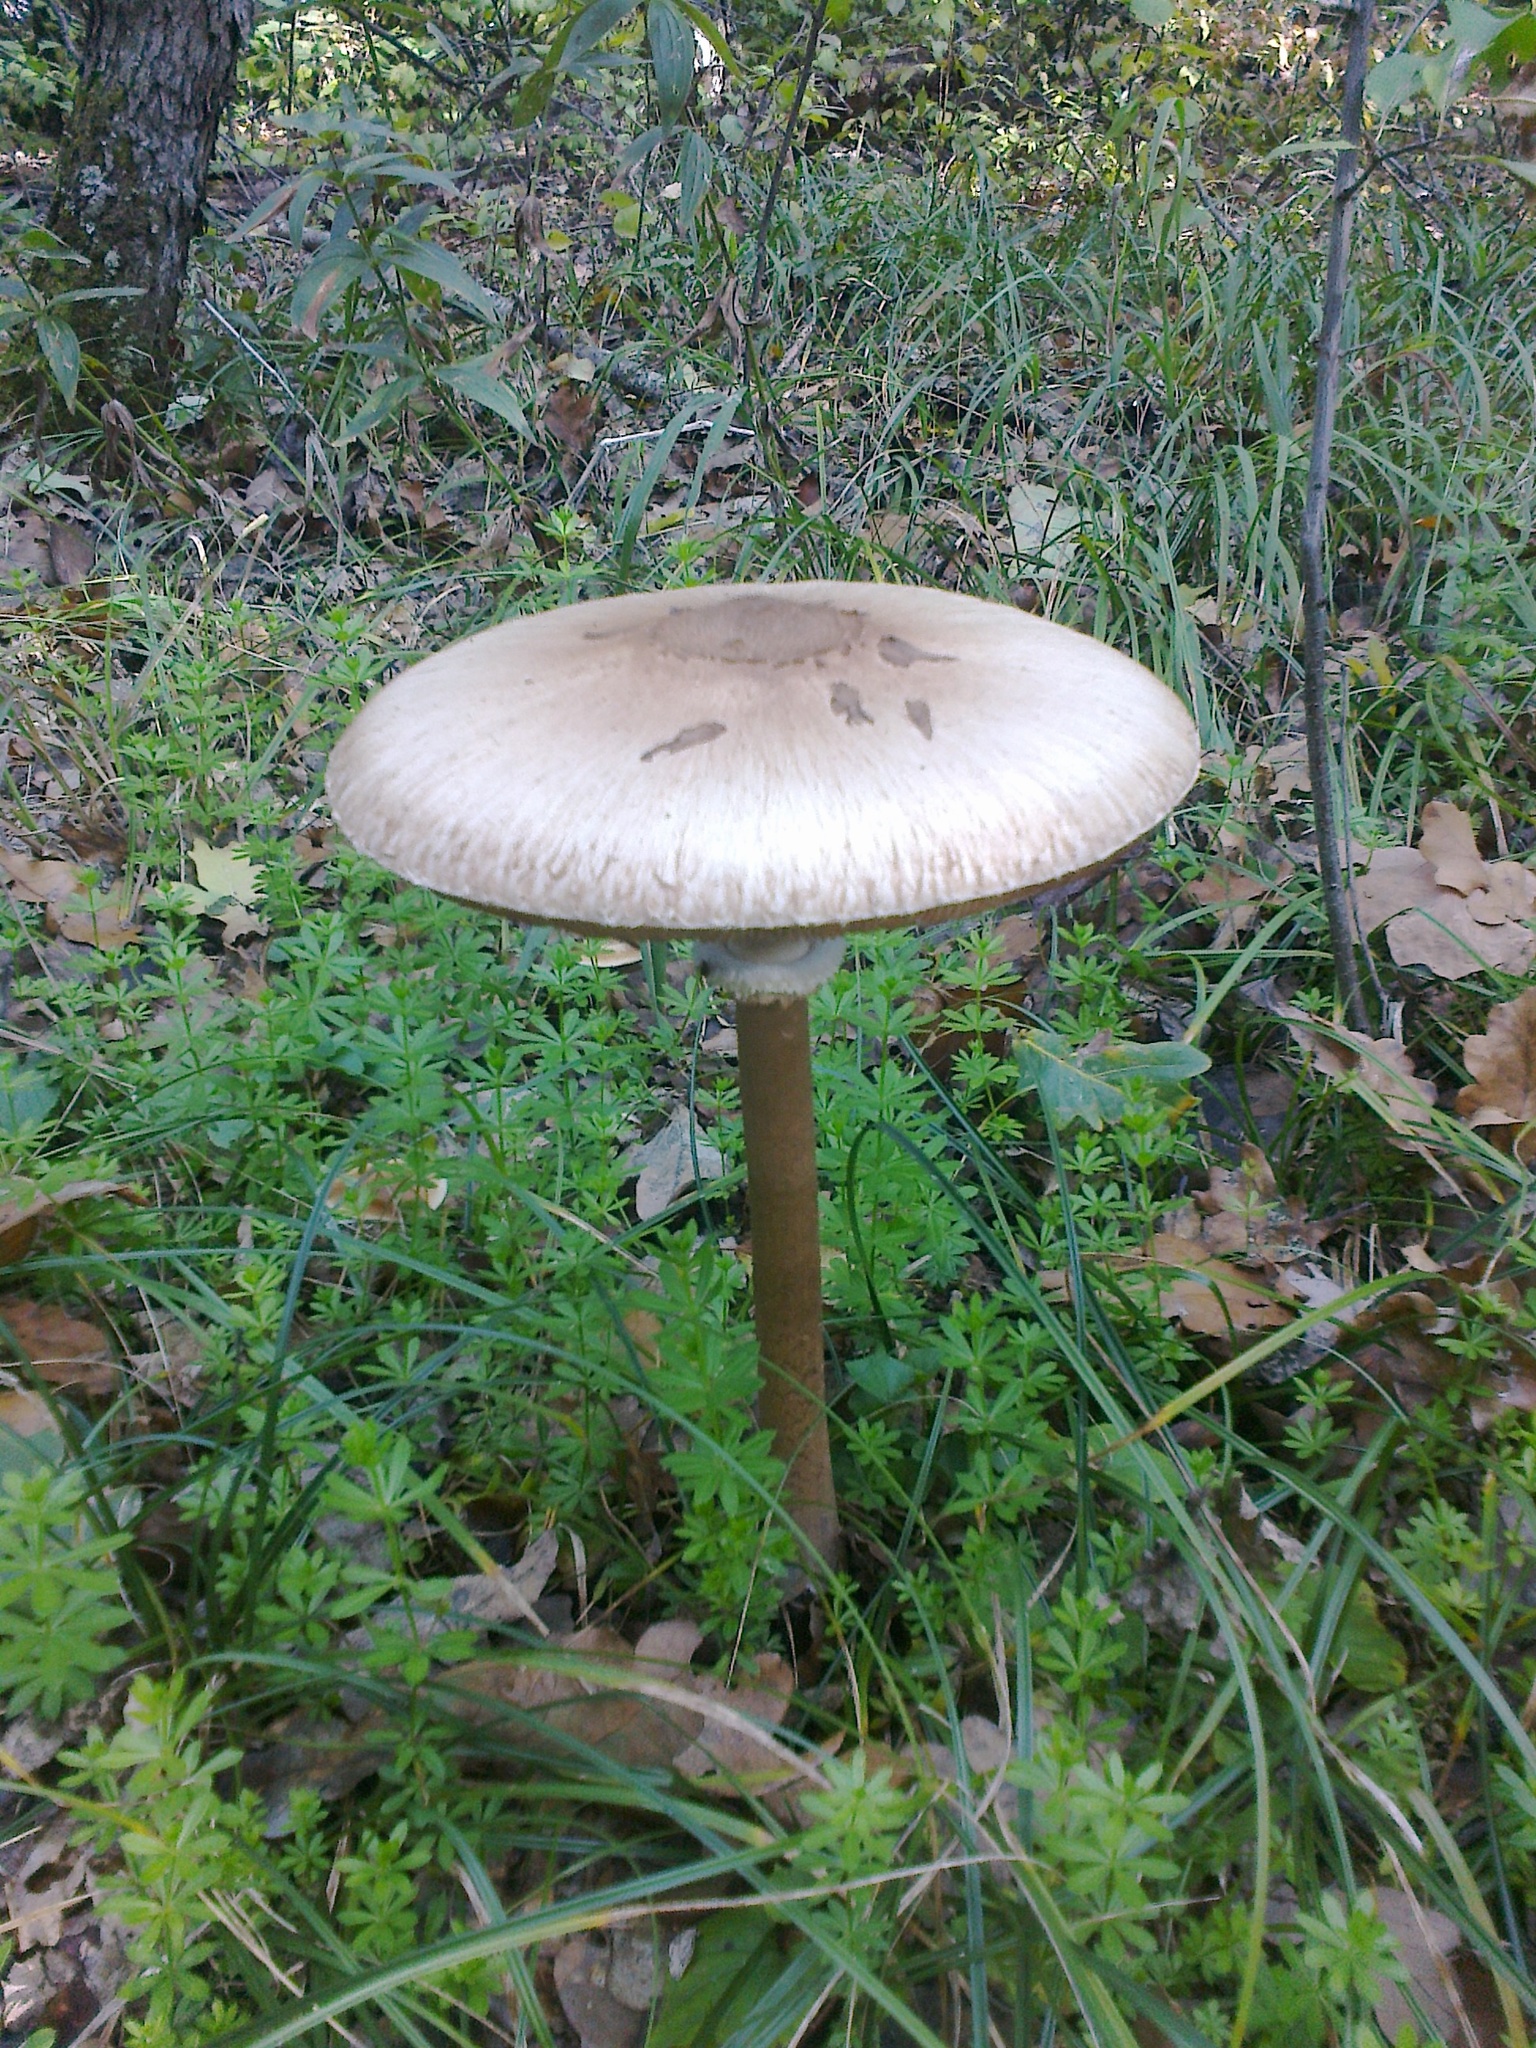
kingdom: Fungi
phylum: Basidiomycota
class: Agaricomycetes
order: Agaricales
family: Agaricaceae
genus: Macrolepiota
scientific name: Macrolepiota procera
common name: Parasol
